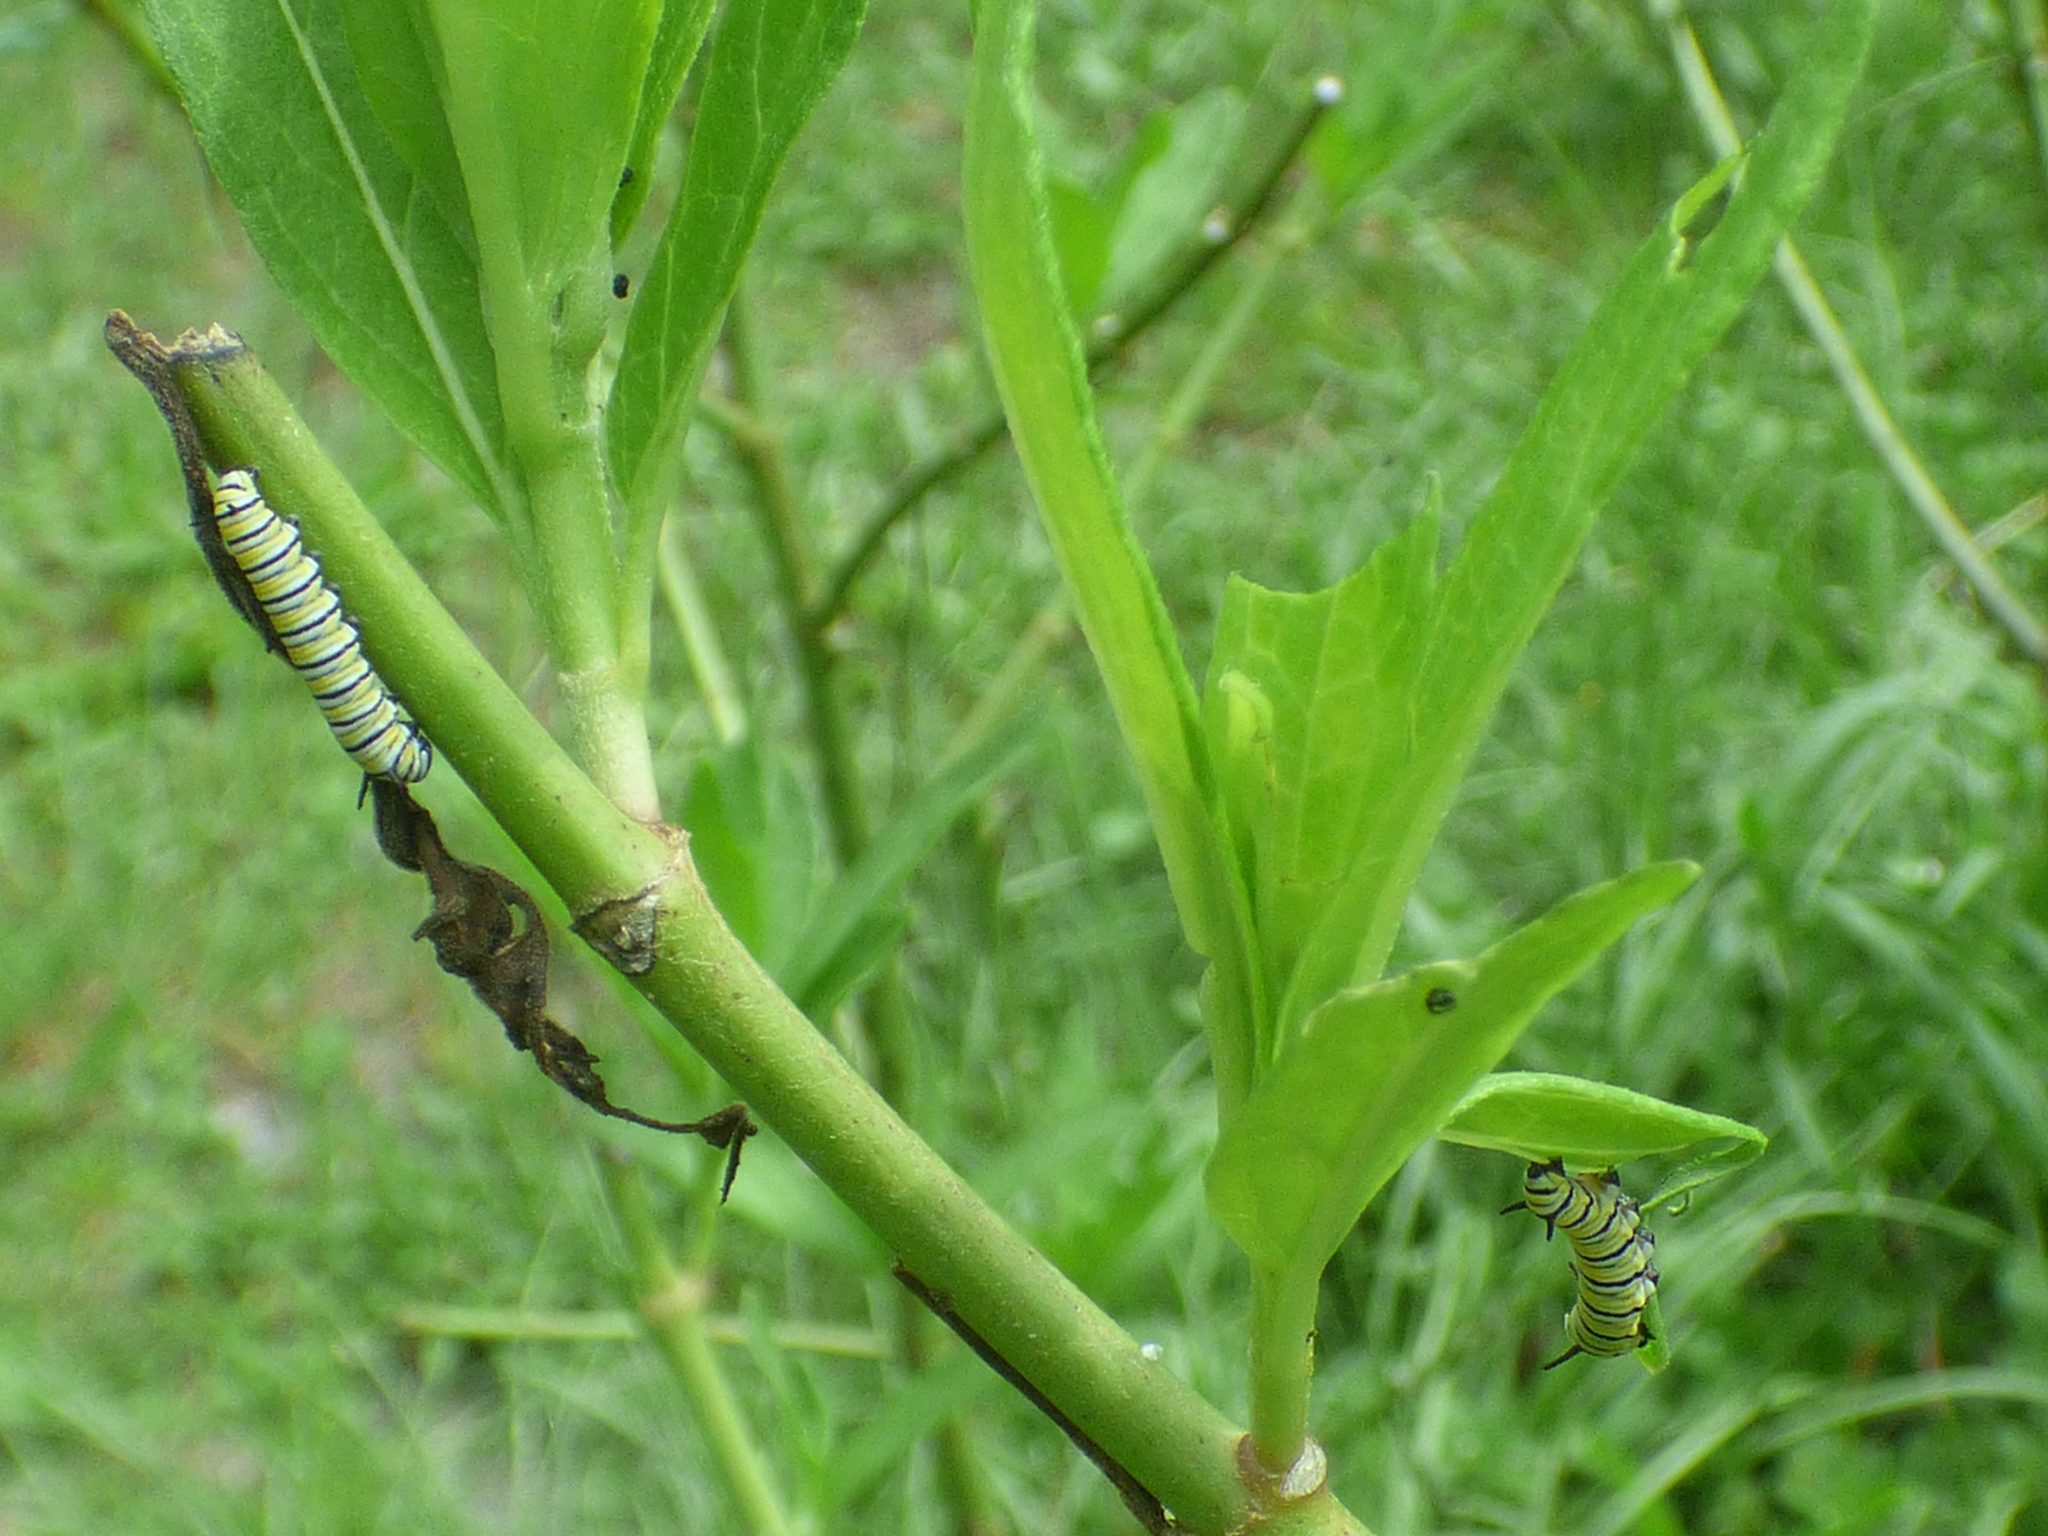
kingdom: Animalia
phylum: Arthropoda
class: Insecta
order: Lepidoptera
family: Nymphalidae
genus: Danaus
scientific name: Danaus plexippus
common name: Monarch
